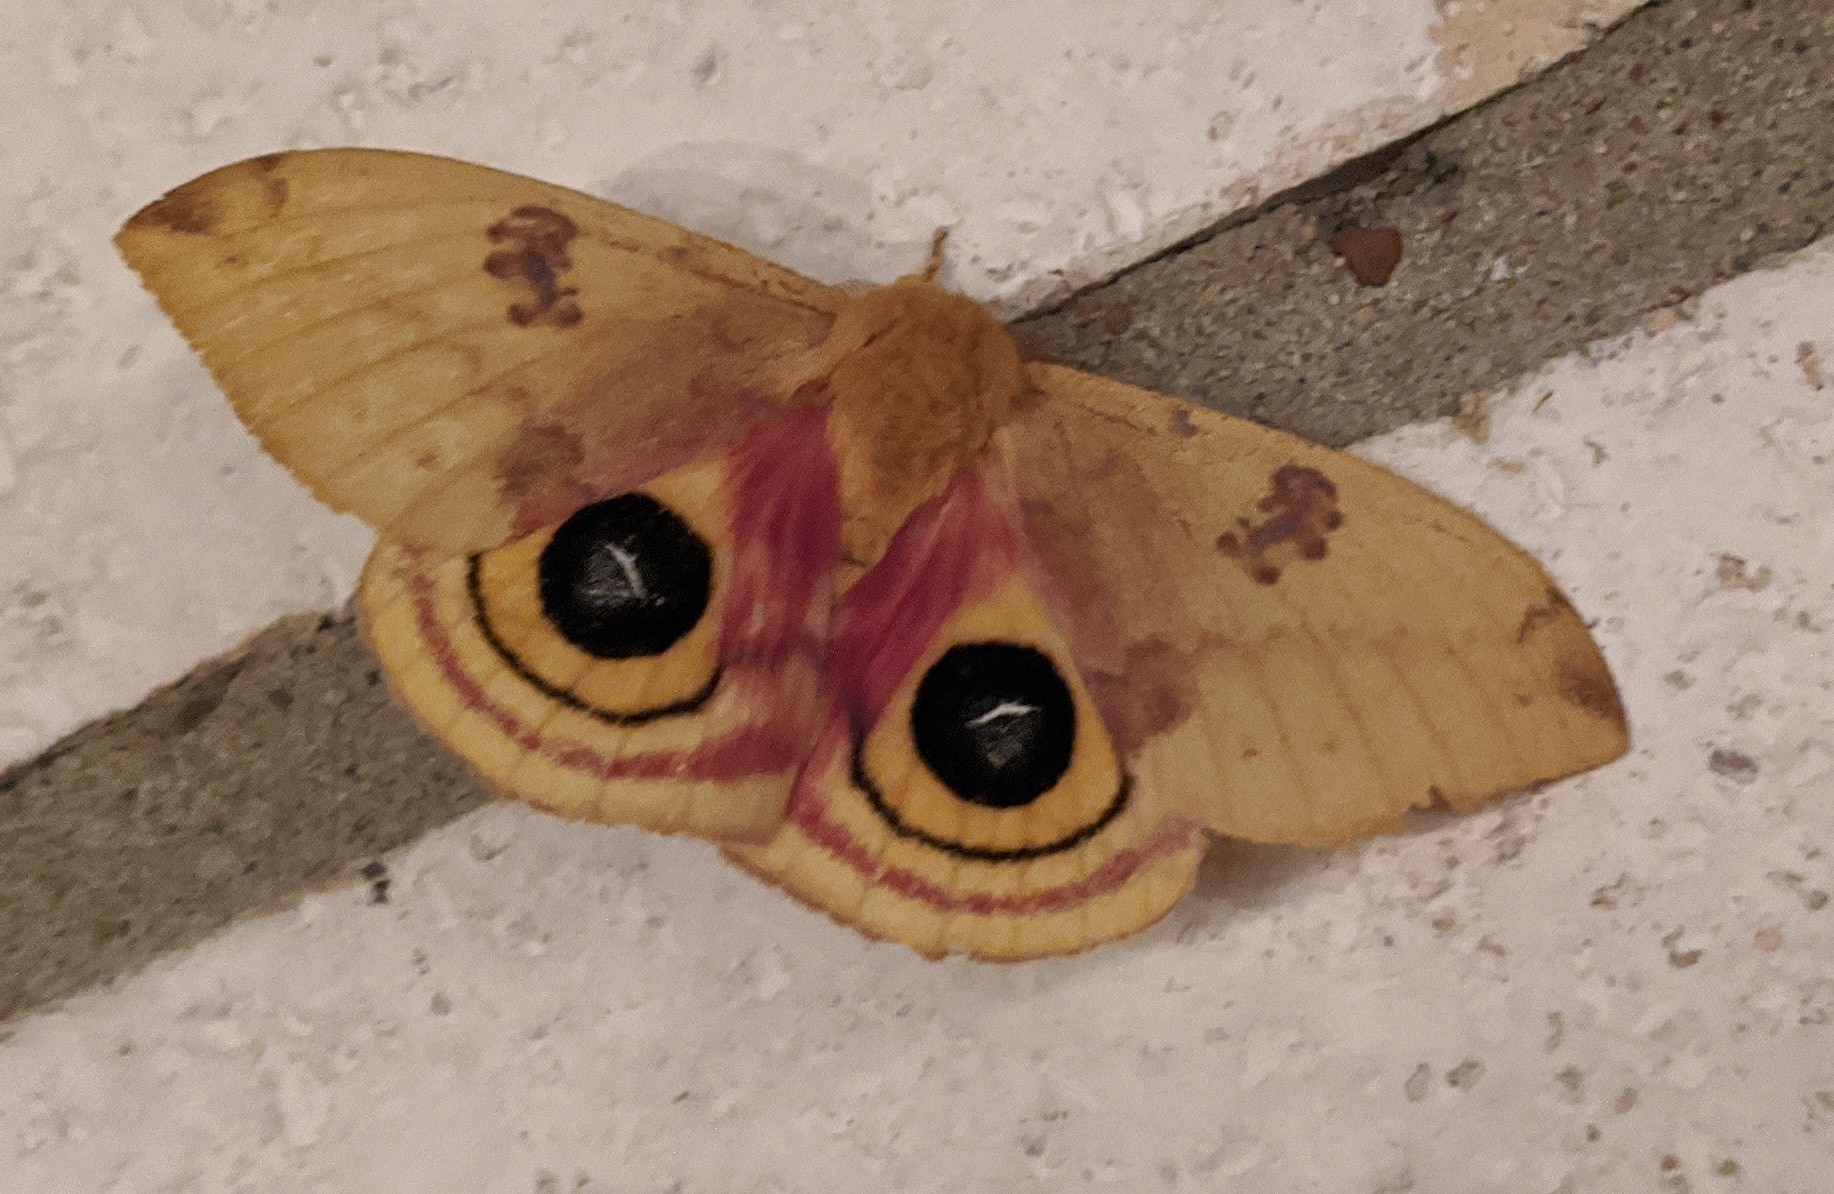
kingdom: Animalia
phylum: Arthropoda
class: Insecta
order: Lepidoptera
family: Saturniidae
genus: Automeris
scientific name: Automeris io
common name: Io moth
